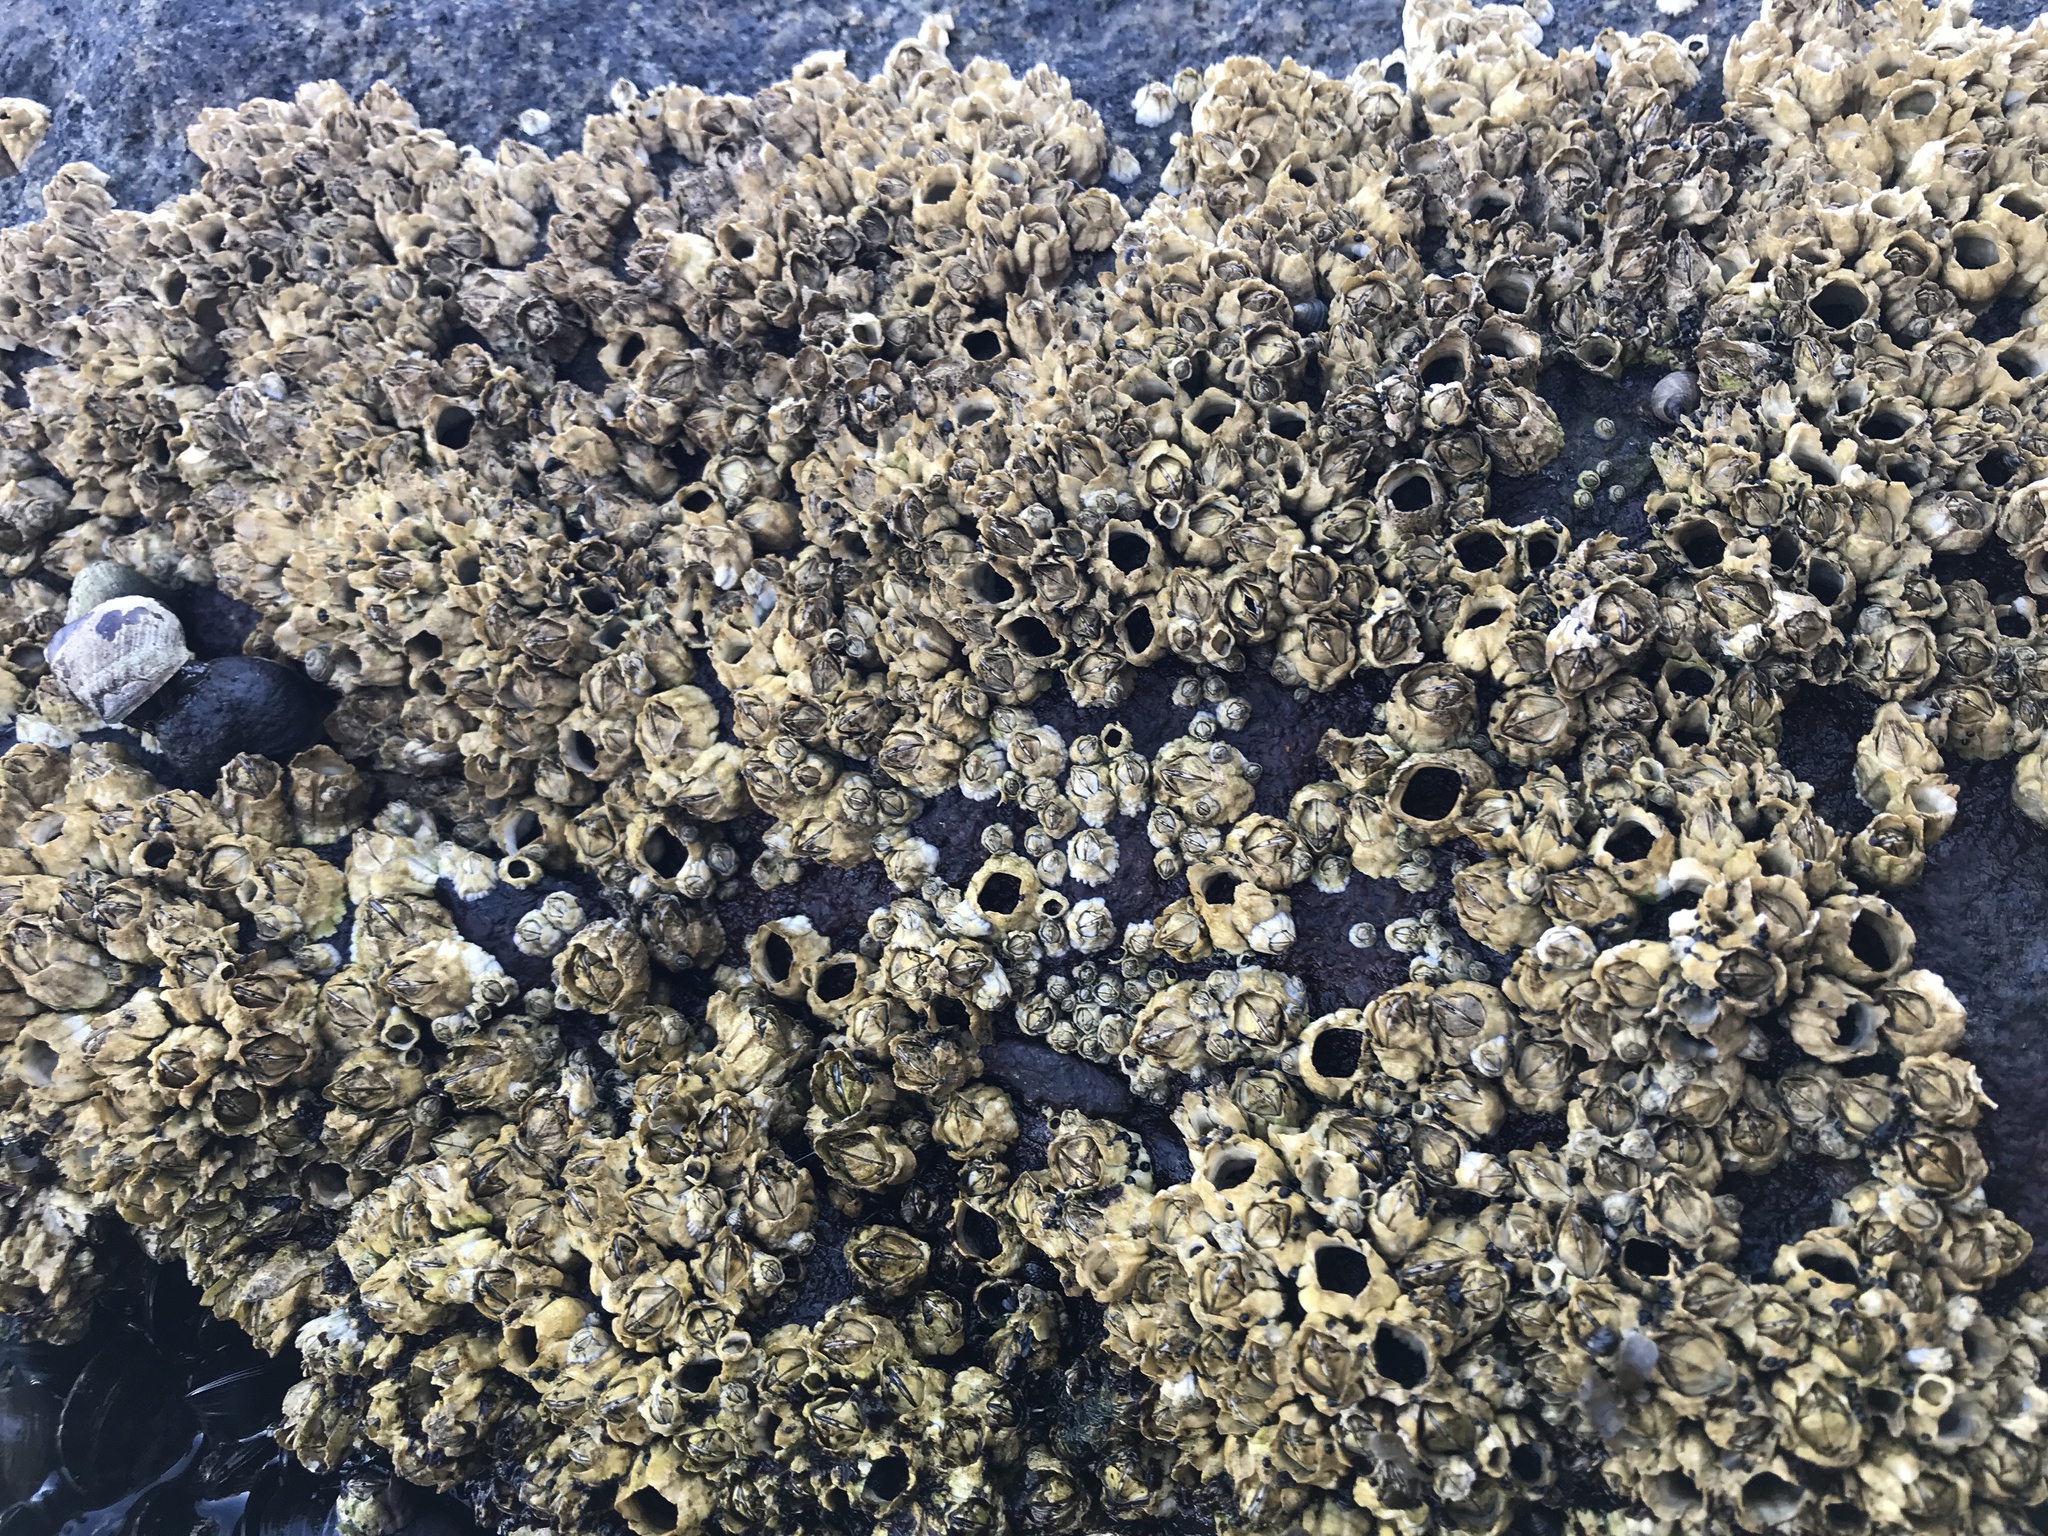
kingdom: Animalia
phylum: Arthropoda
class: Maxillopoda
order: Sessilia
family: Archaeobalanidae
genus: Semibalanus
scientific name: Semibalanus balanoides
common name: Acorn barnacle
